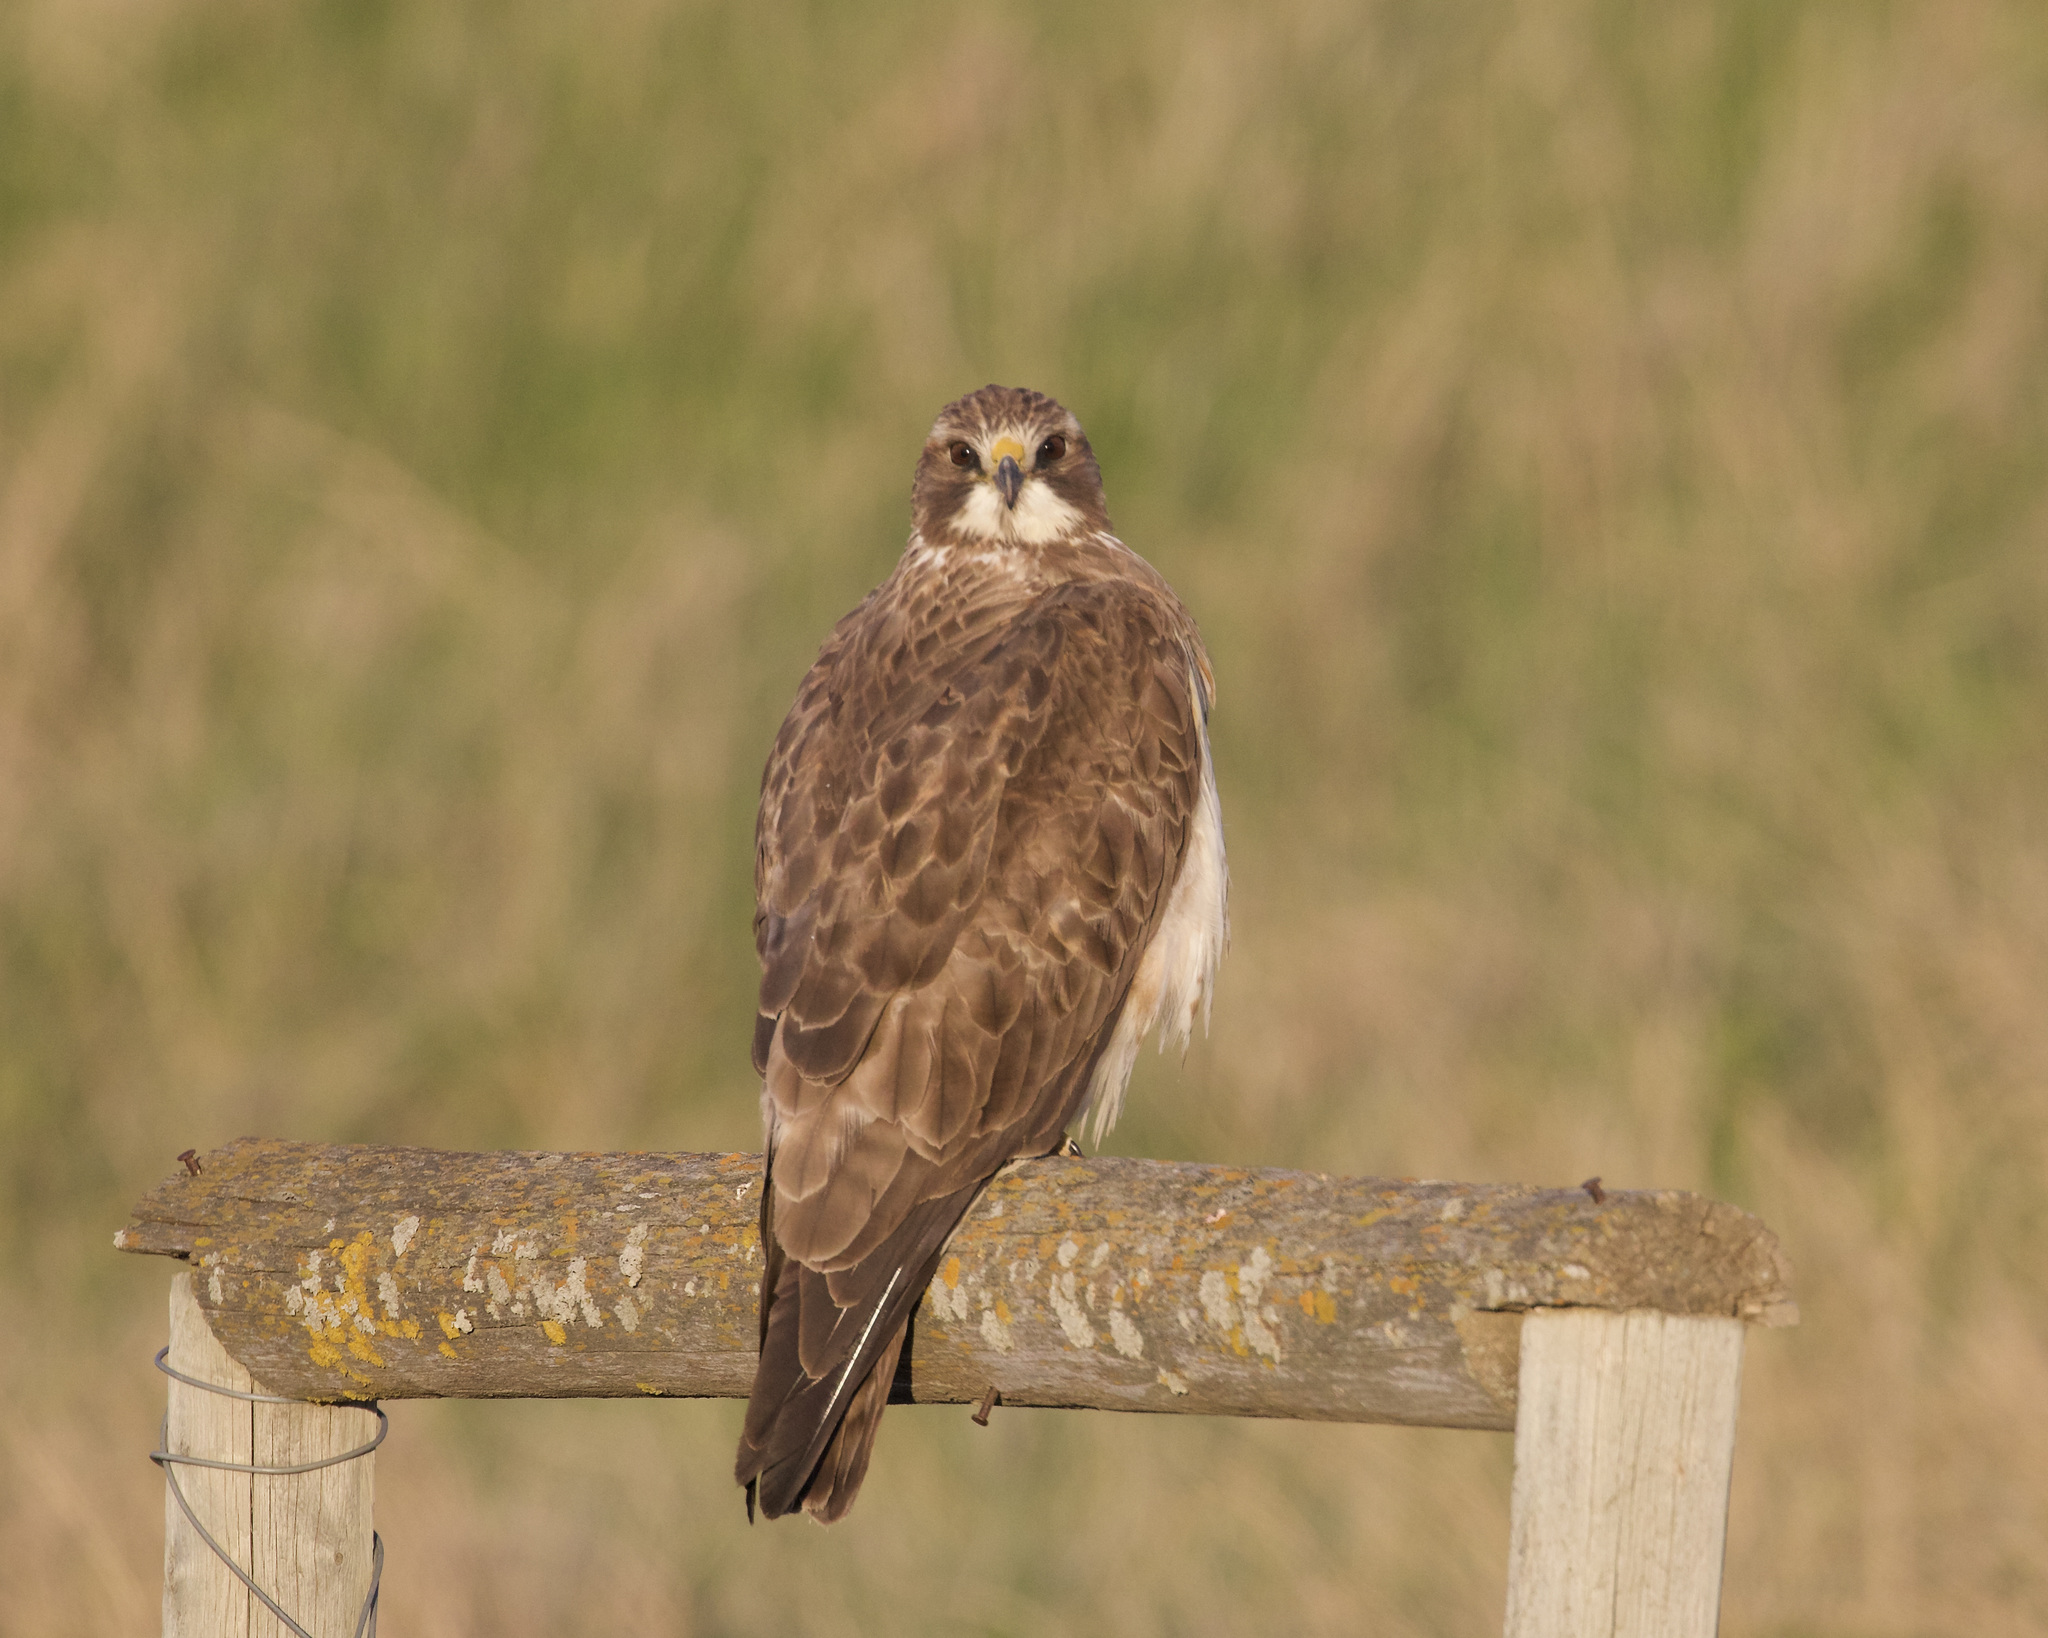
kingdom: Animalia
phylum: Chordata
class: Aves
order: Accipitriformes
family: Accipitridae
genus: Buteo
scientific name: Buteo swainsoni
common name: Swainson's hawk
